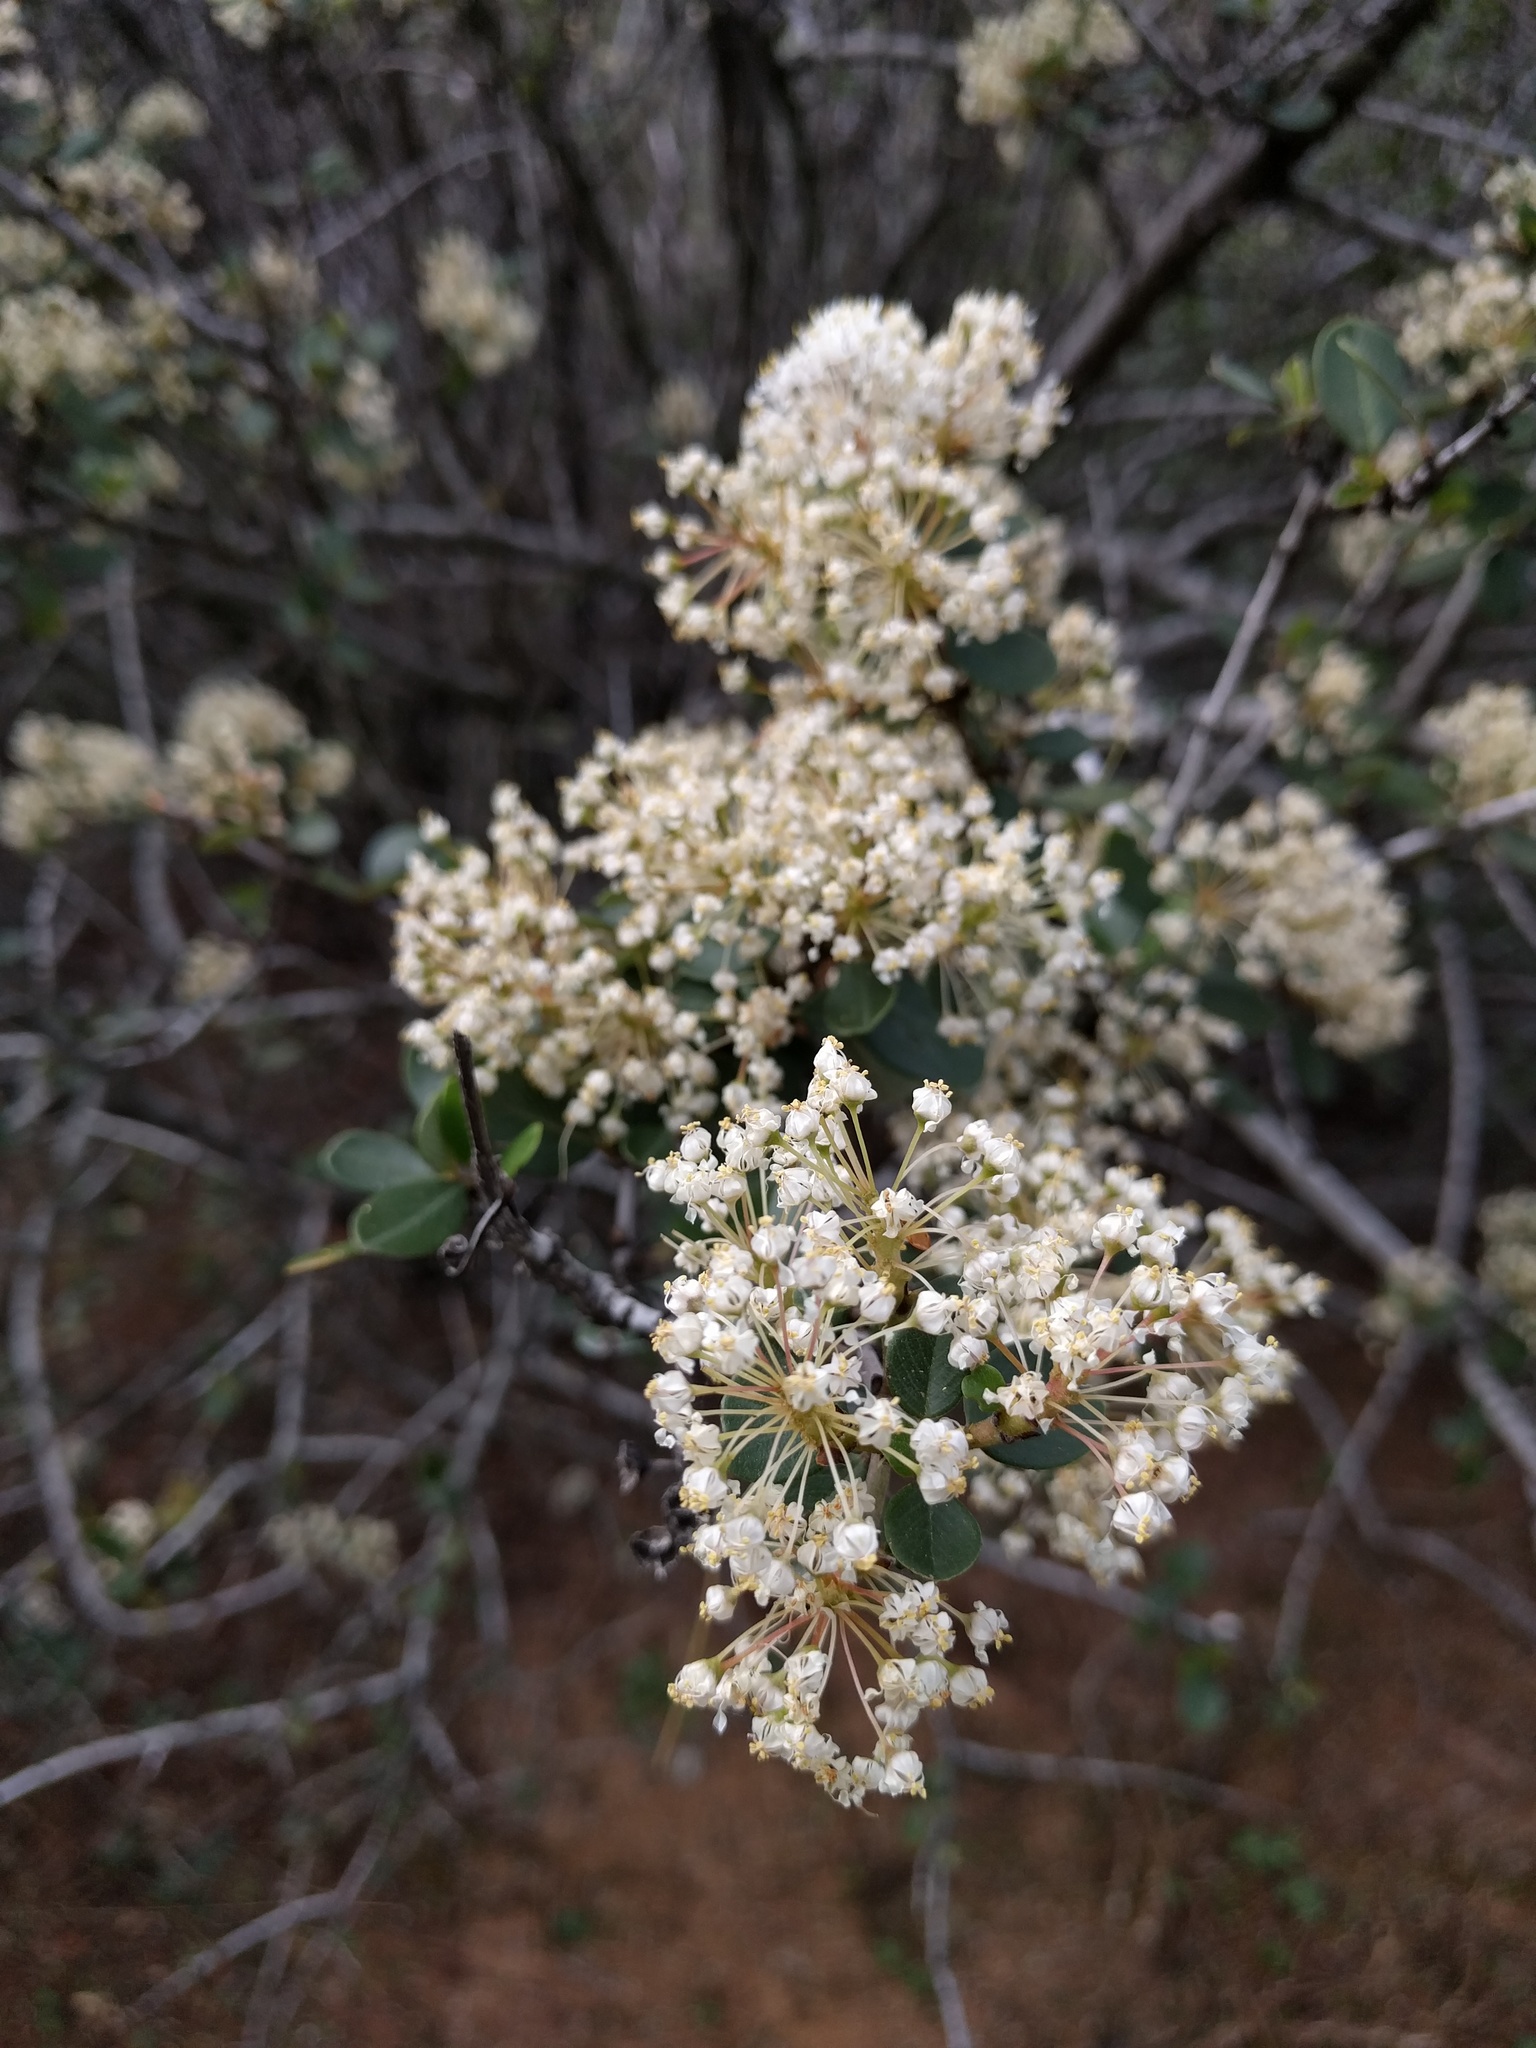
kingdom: Plantae
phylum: Tracheophyta
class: Magnoliopsida
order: Rosales
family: Rhamnaceae
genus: Ceanothus
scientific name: Ceanothus cuneatus
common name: Cuneate ceanothus
